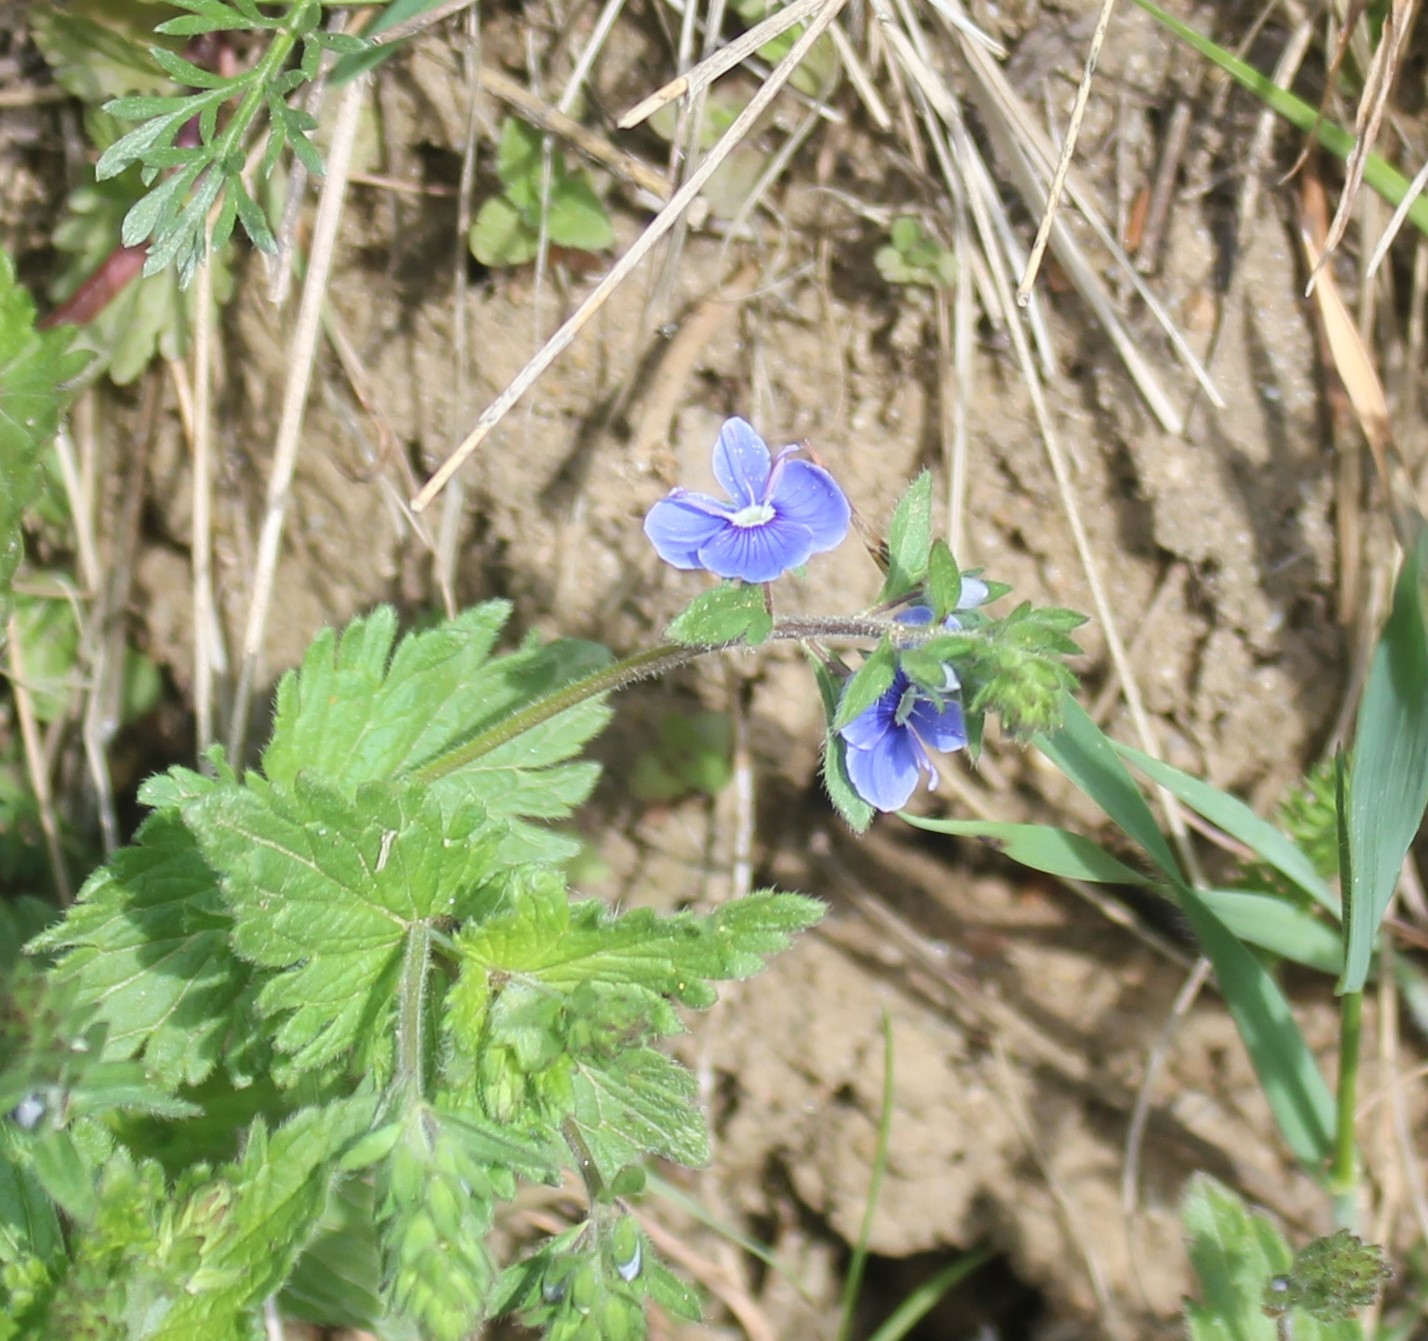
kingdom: Plantae
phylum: Tracheophyta
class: Magnoliopsida
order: Lamiales
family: Plantaginaceae
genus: Veronica
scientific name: Veronica chamaedrys
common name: Germander speedwell
